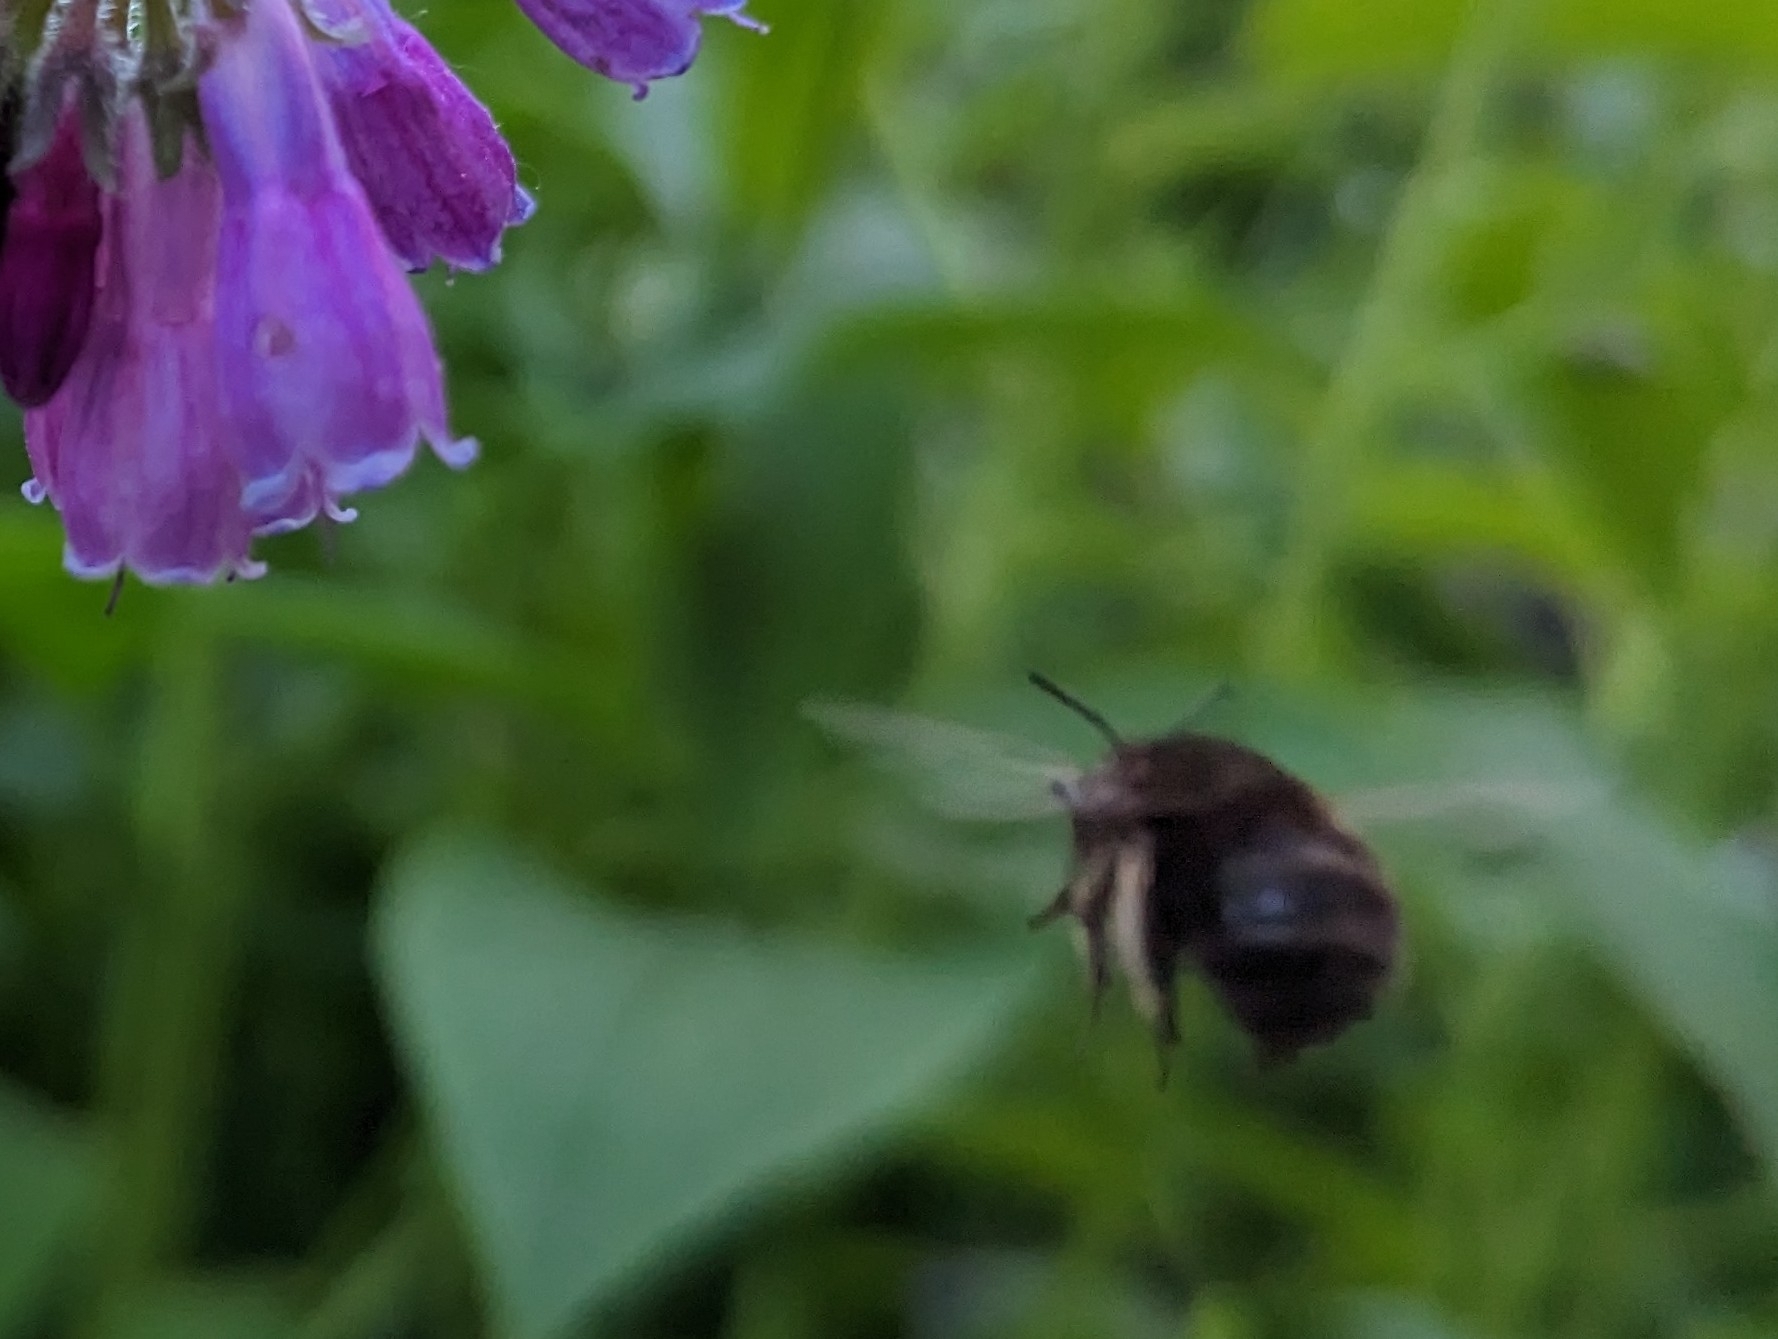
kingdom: Animalia
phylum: Arthropoda
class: Insecta
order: Hymenoptera
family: Apidae
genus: Anthophora
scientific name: Anthophora plumipes
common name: Hairy-footed flower bee
